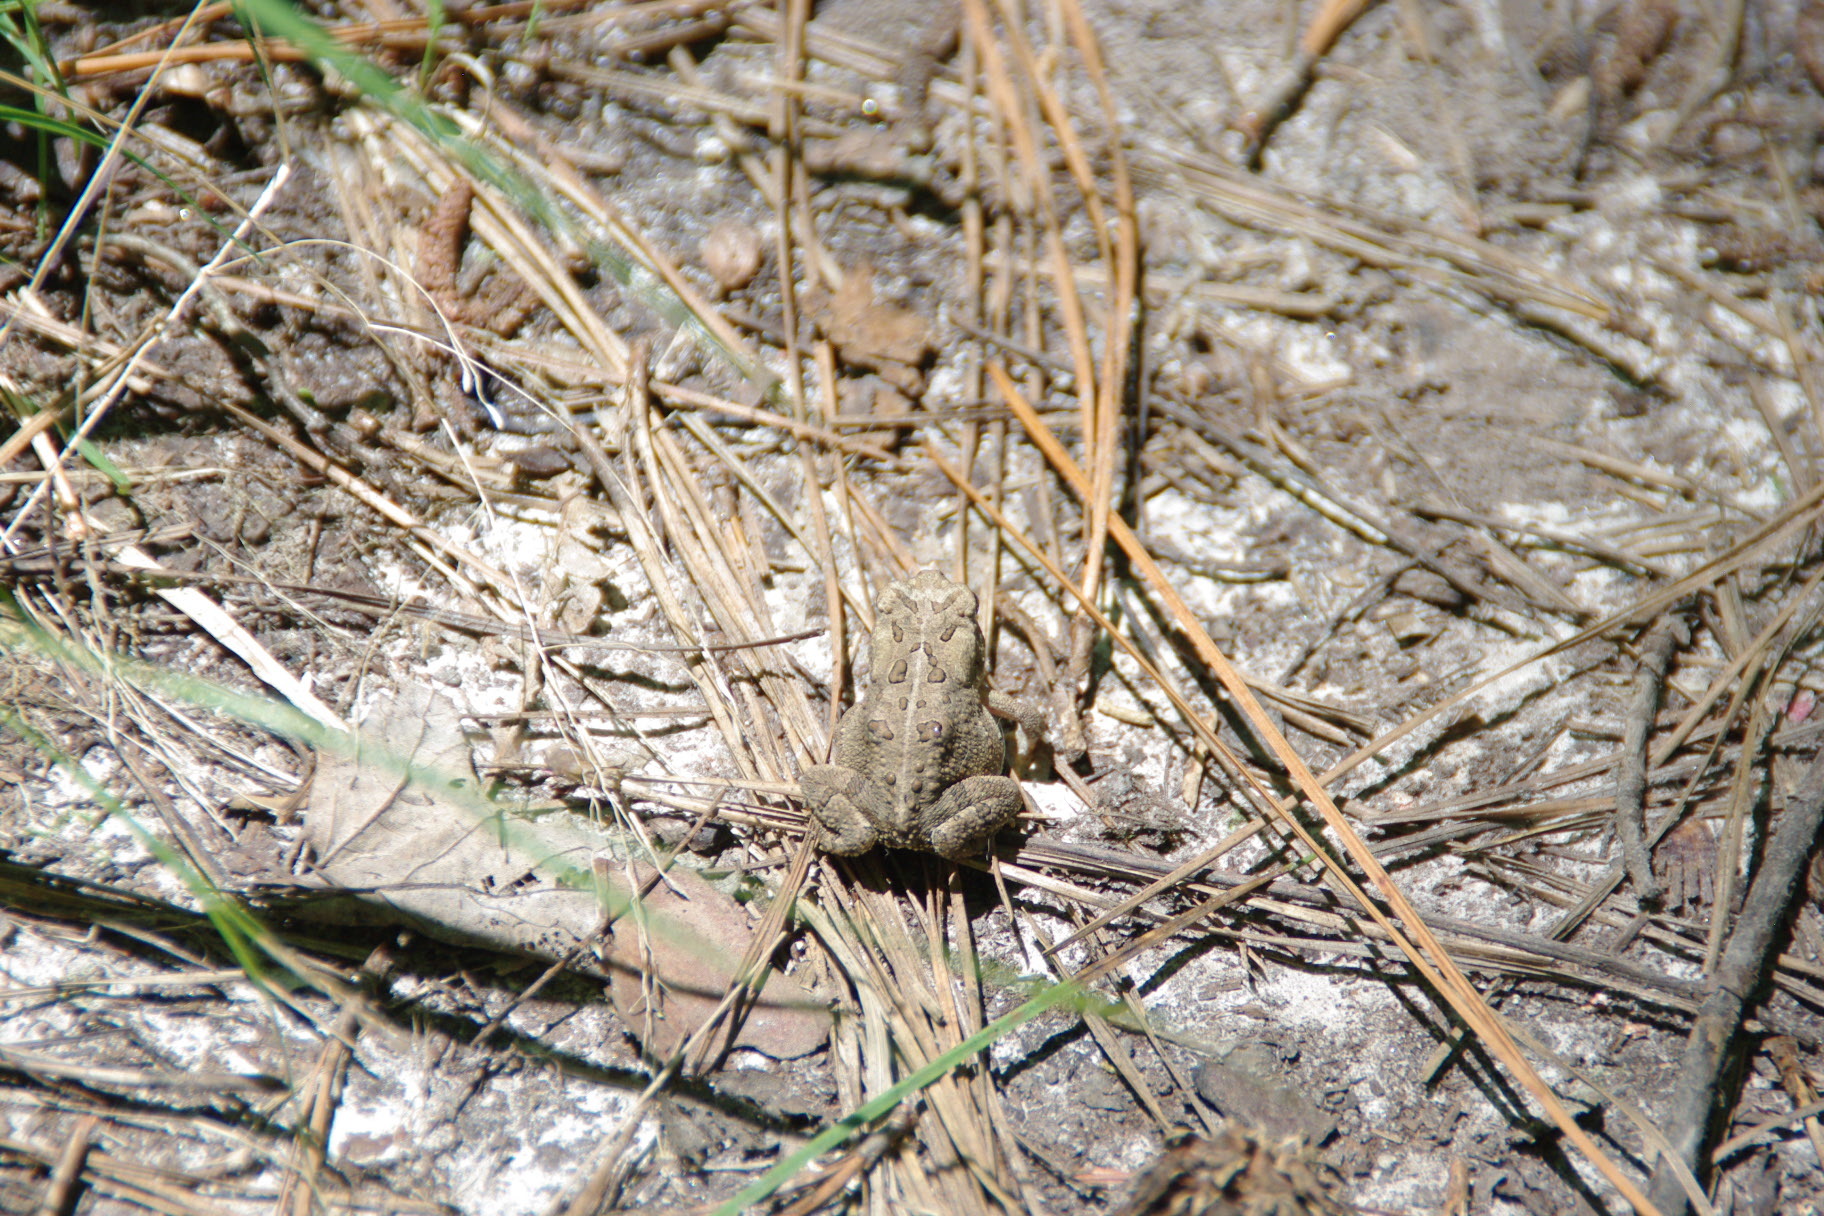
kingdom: Animalia
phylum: Chordata
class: Amphibia
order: Anura
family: Bufonidae
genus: Anaxyrus
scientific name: Anaxyrus terrestris
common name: Southern toad
